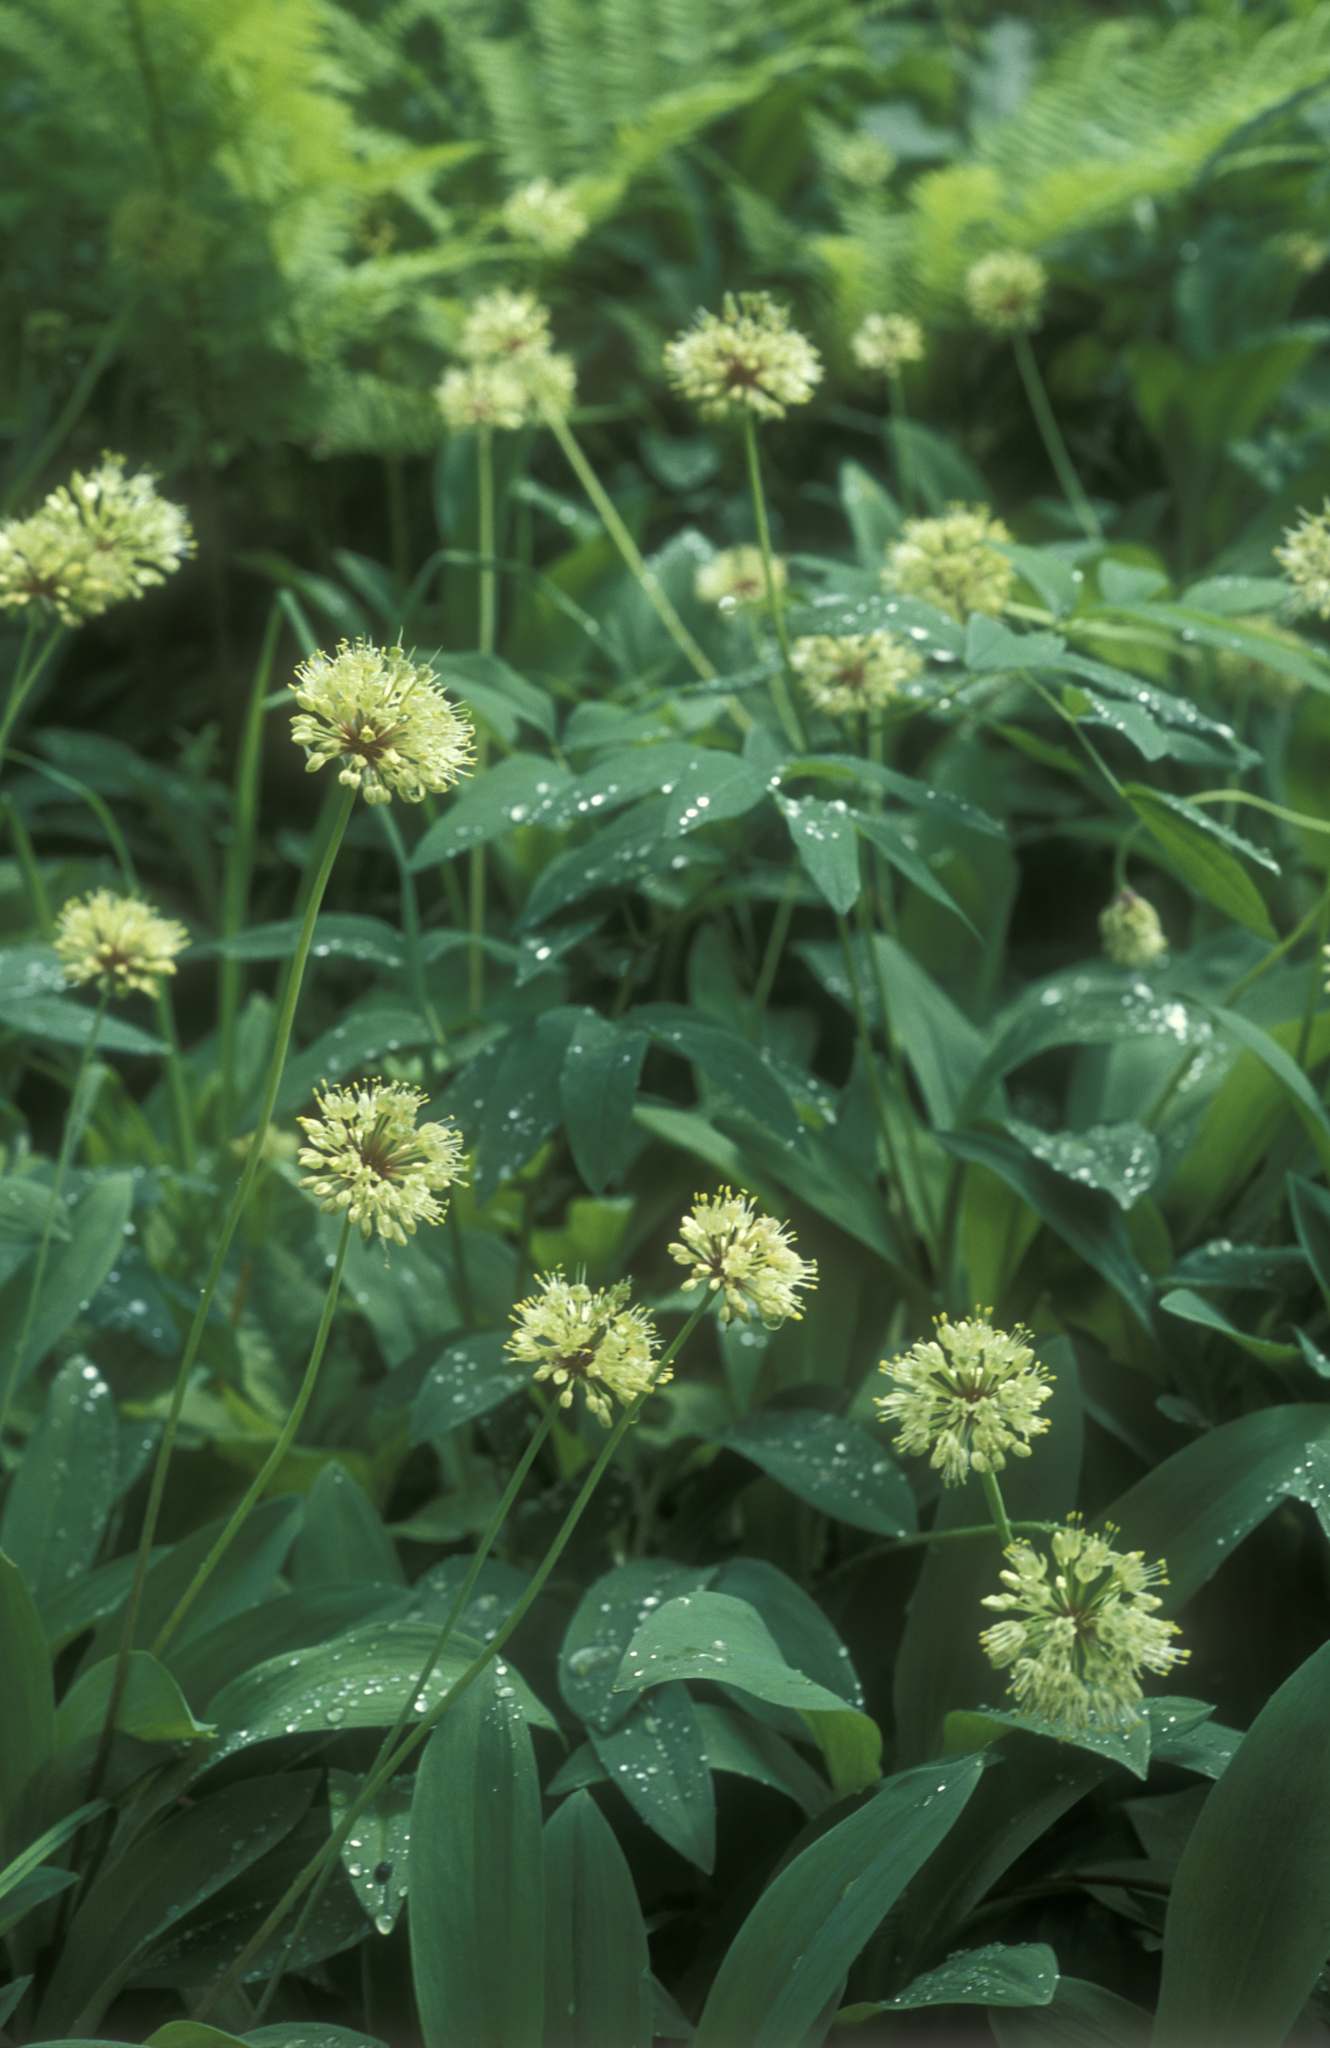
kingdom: Plantae
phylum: Tracheophyta
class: Liliopsida
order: Asparagales
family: Amaryllidaceae
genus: Allium
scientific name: Allium microdictyon
